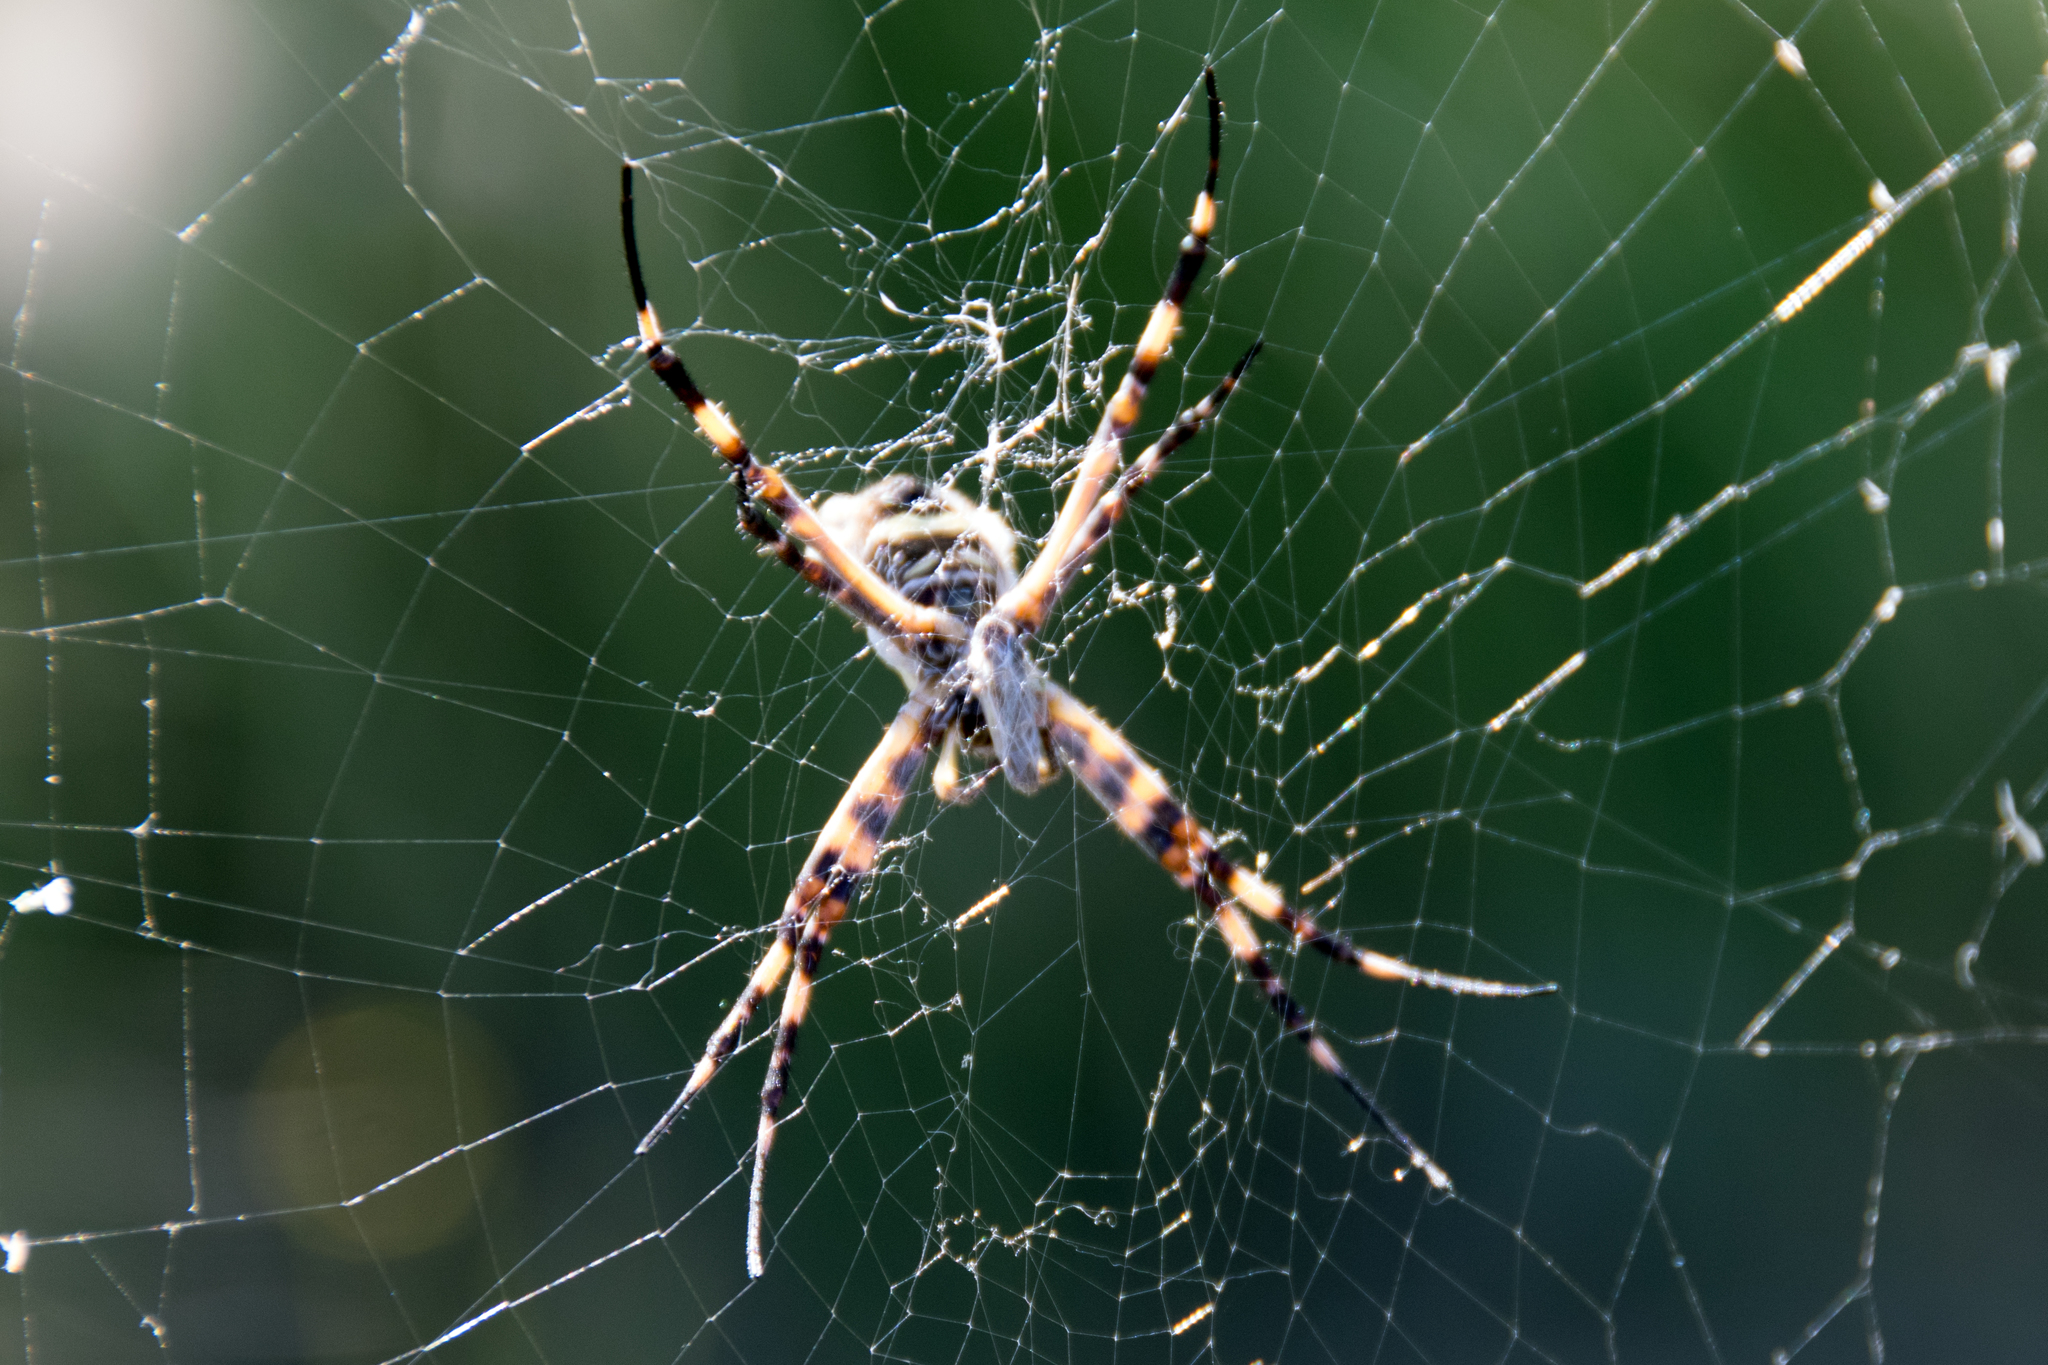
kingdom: Animalia
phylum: Arthropoda
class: Arachnida
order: Araneae
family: Araneidae
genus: Argiope
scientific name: Argiope argentata
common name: Orb weavers
